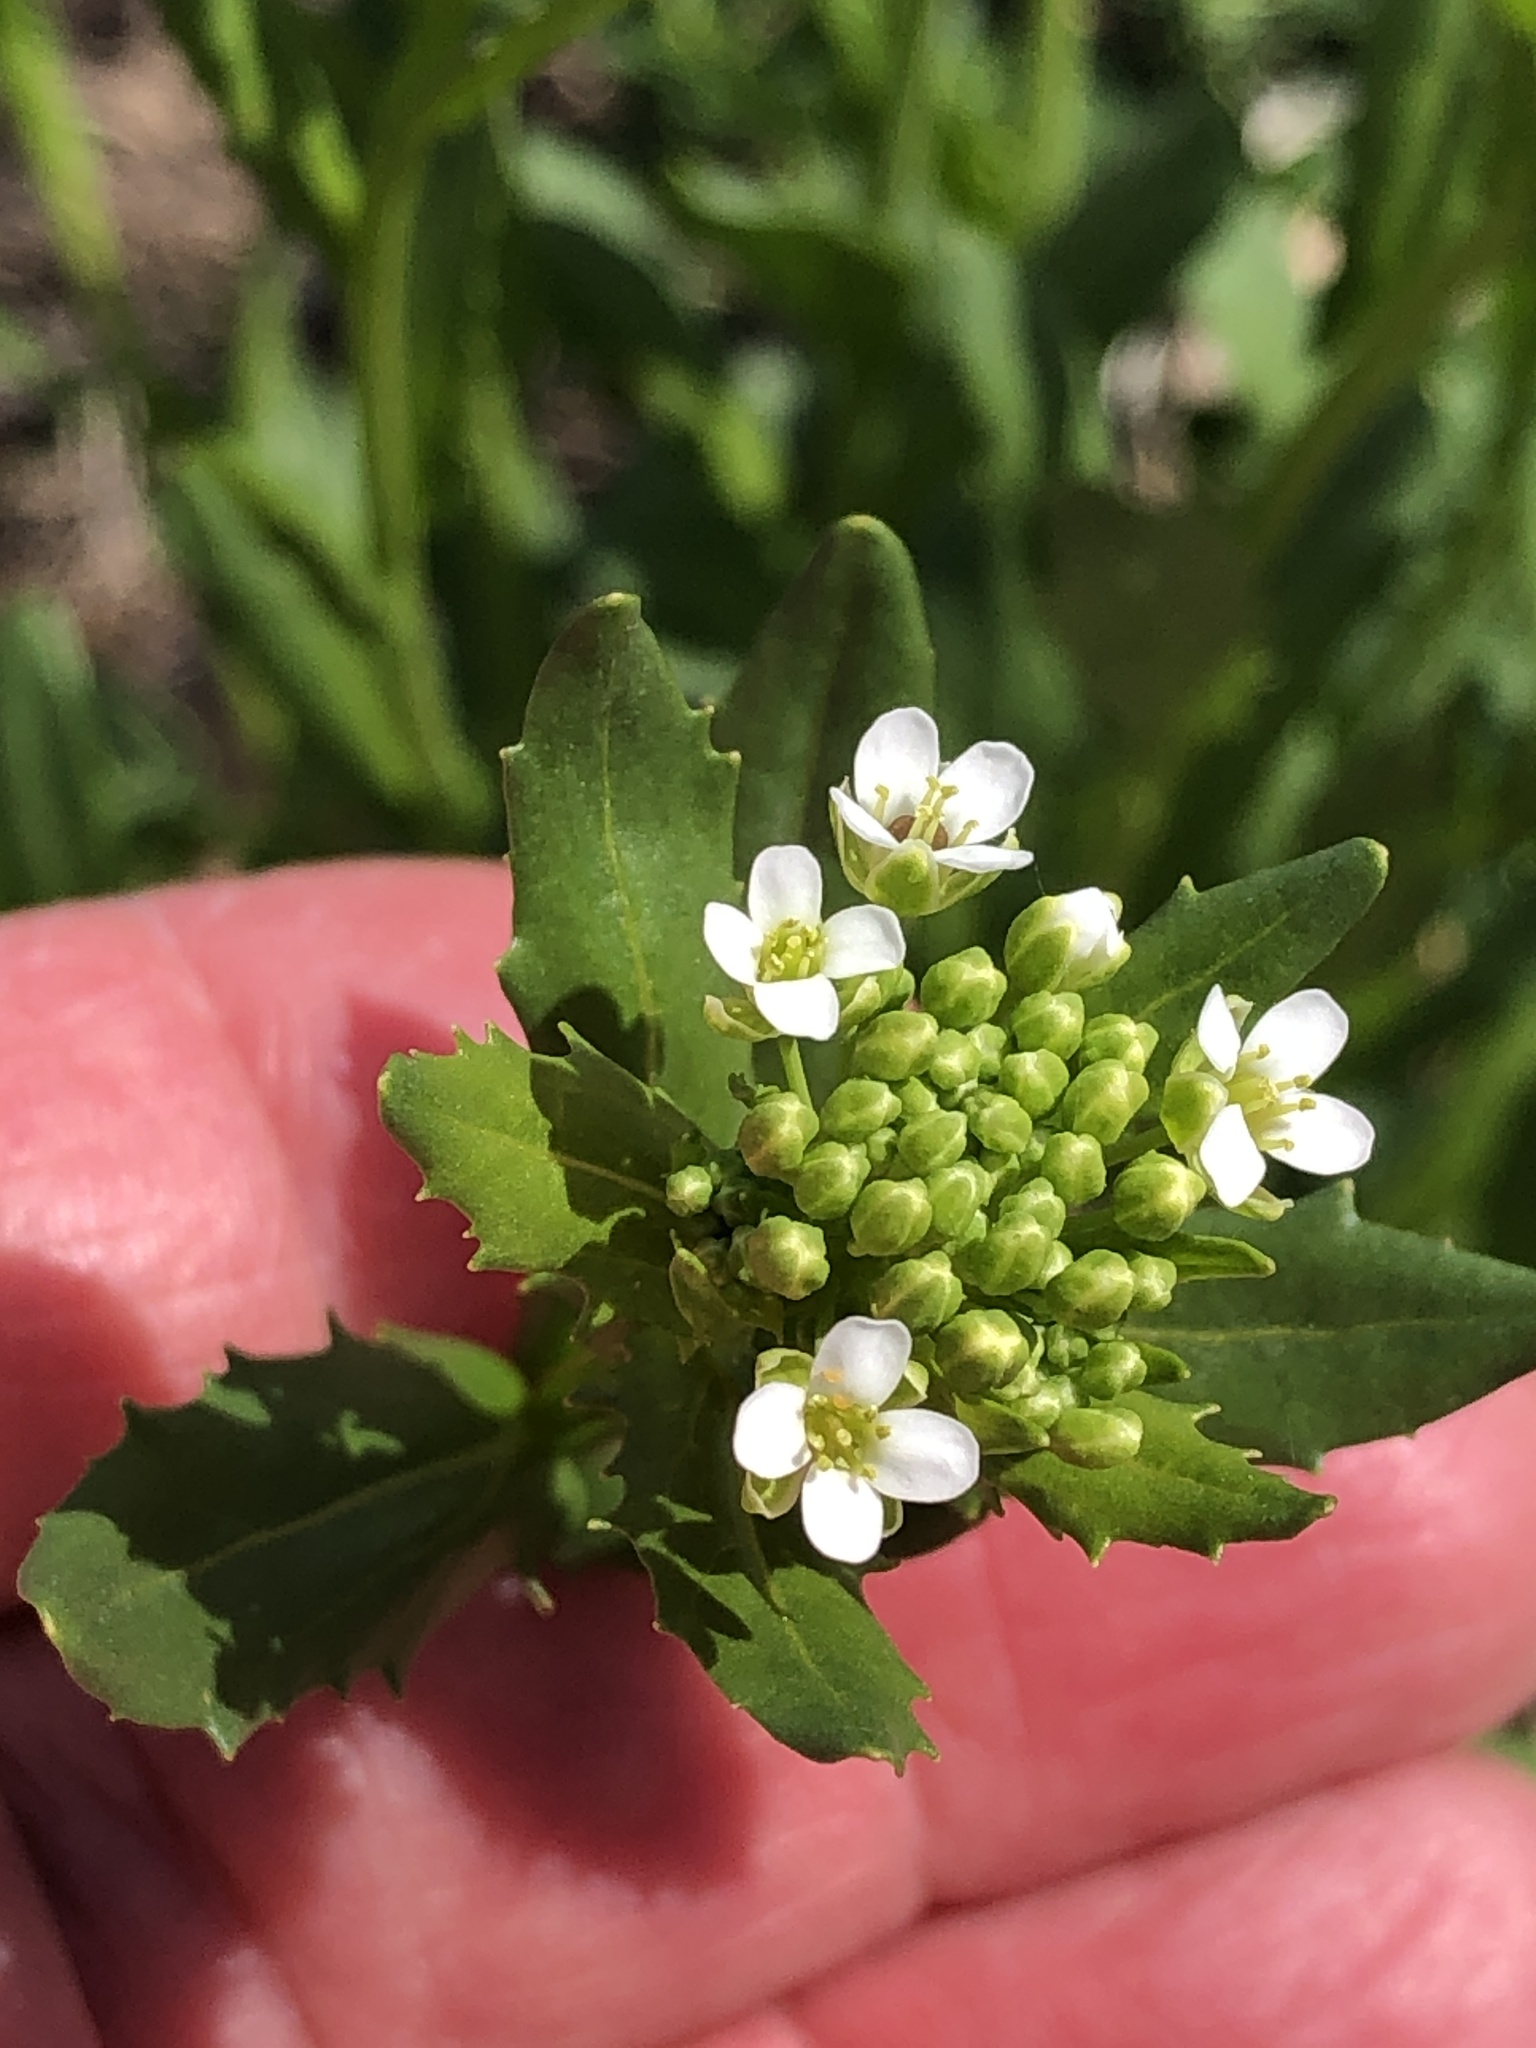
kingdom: Plantae
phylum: Tracheophyta
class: Magnoliopsida
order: Brassicales
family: Brassicaceae
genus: Thlaspi
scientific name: Thlaspi arvense
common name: Field pennycress
